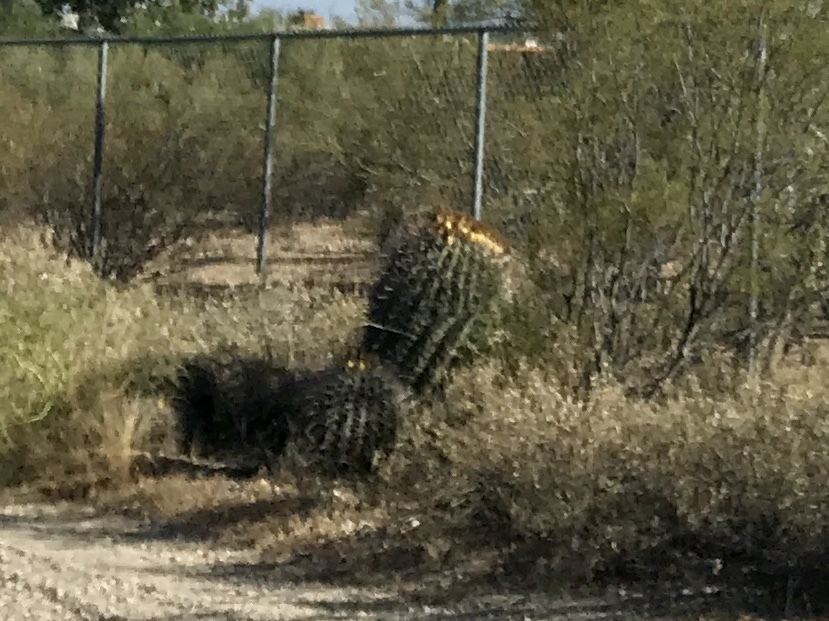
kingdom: Plantae
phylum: Tracheophyta
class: Magnoliopsida
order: Caryophyllales
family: Cactaceae
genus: Ferocactus
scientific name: Ferocactus wislizeni
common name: Candy barrel cactus
